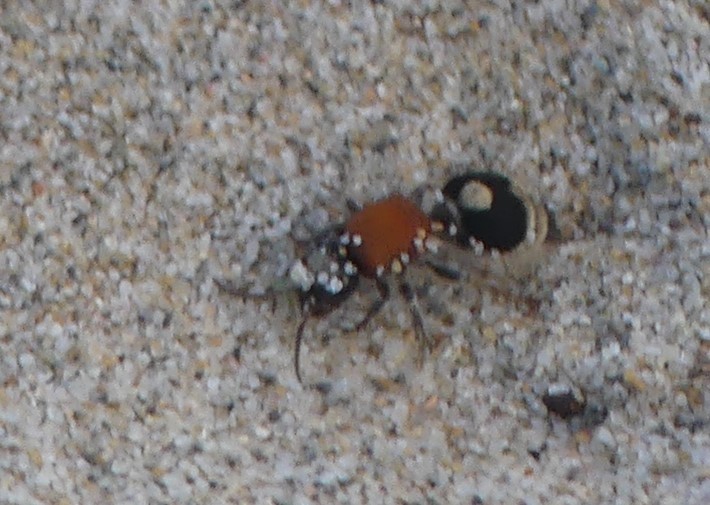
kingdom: Animalia
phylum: Arthropoda
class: Insecta
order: Hymenoptera
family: Mutillidae
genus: Nemka
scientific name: Nemka viduata
